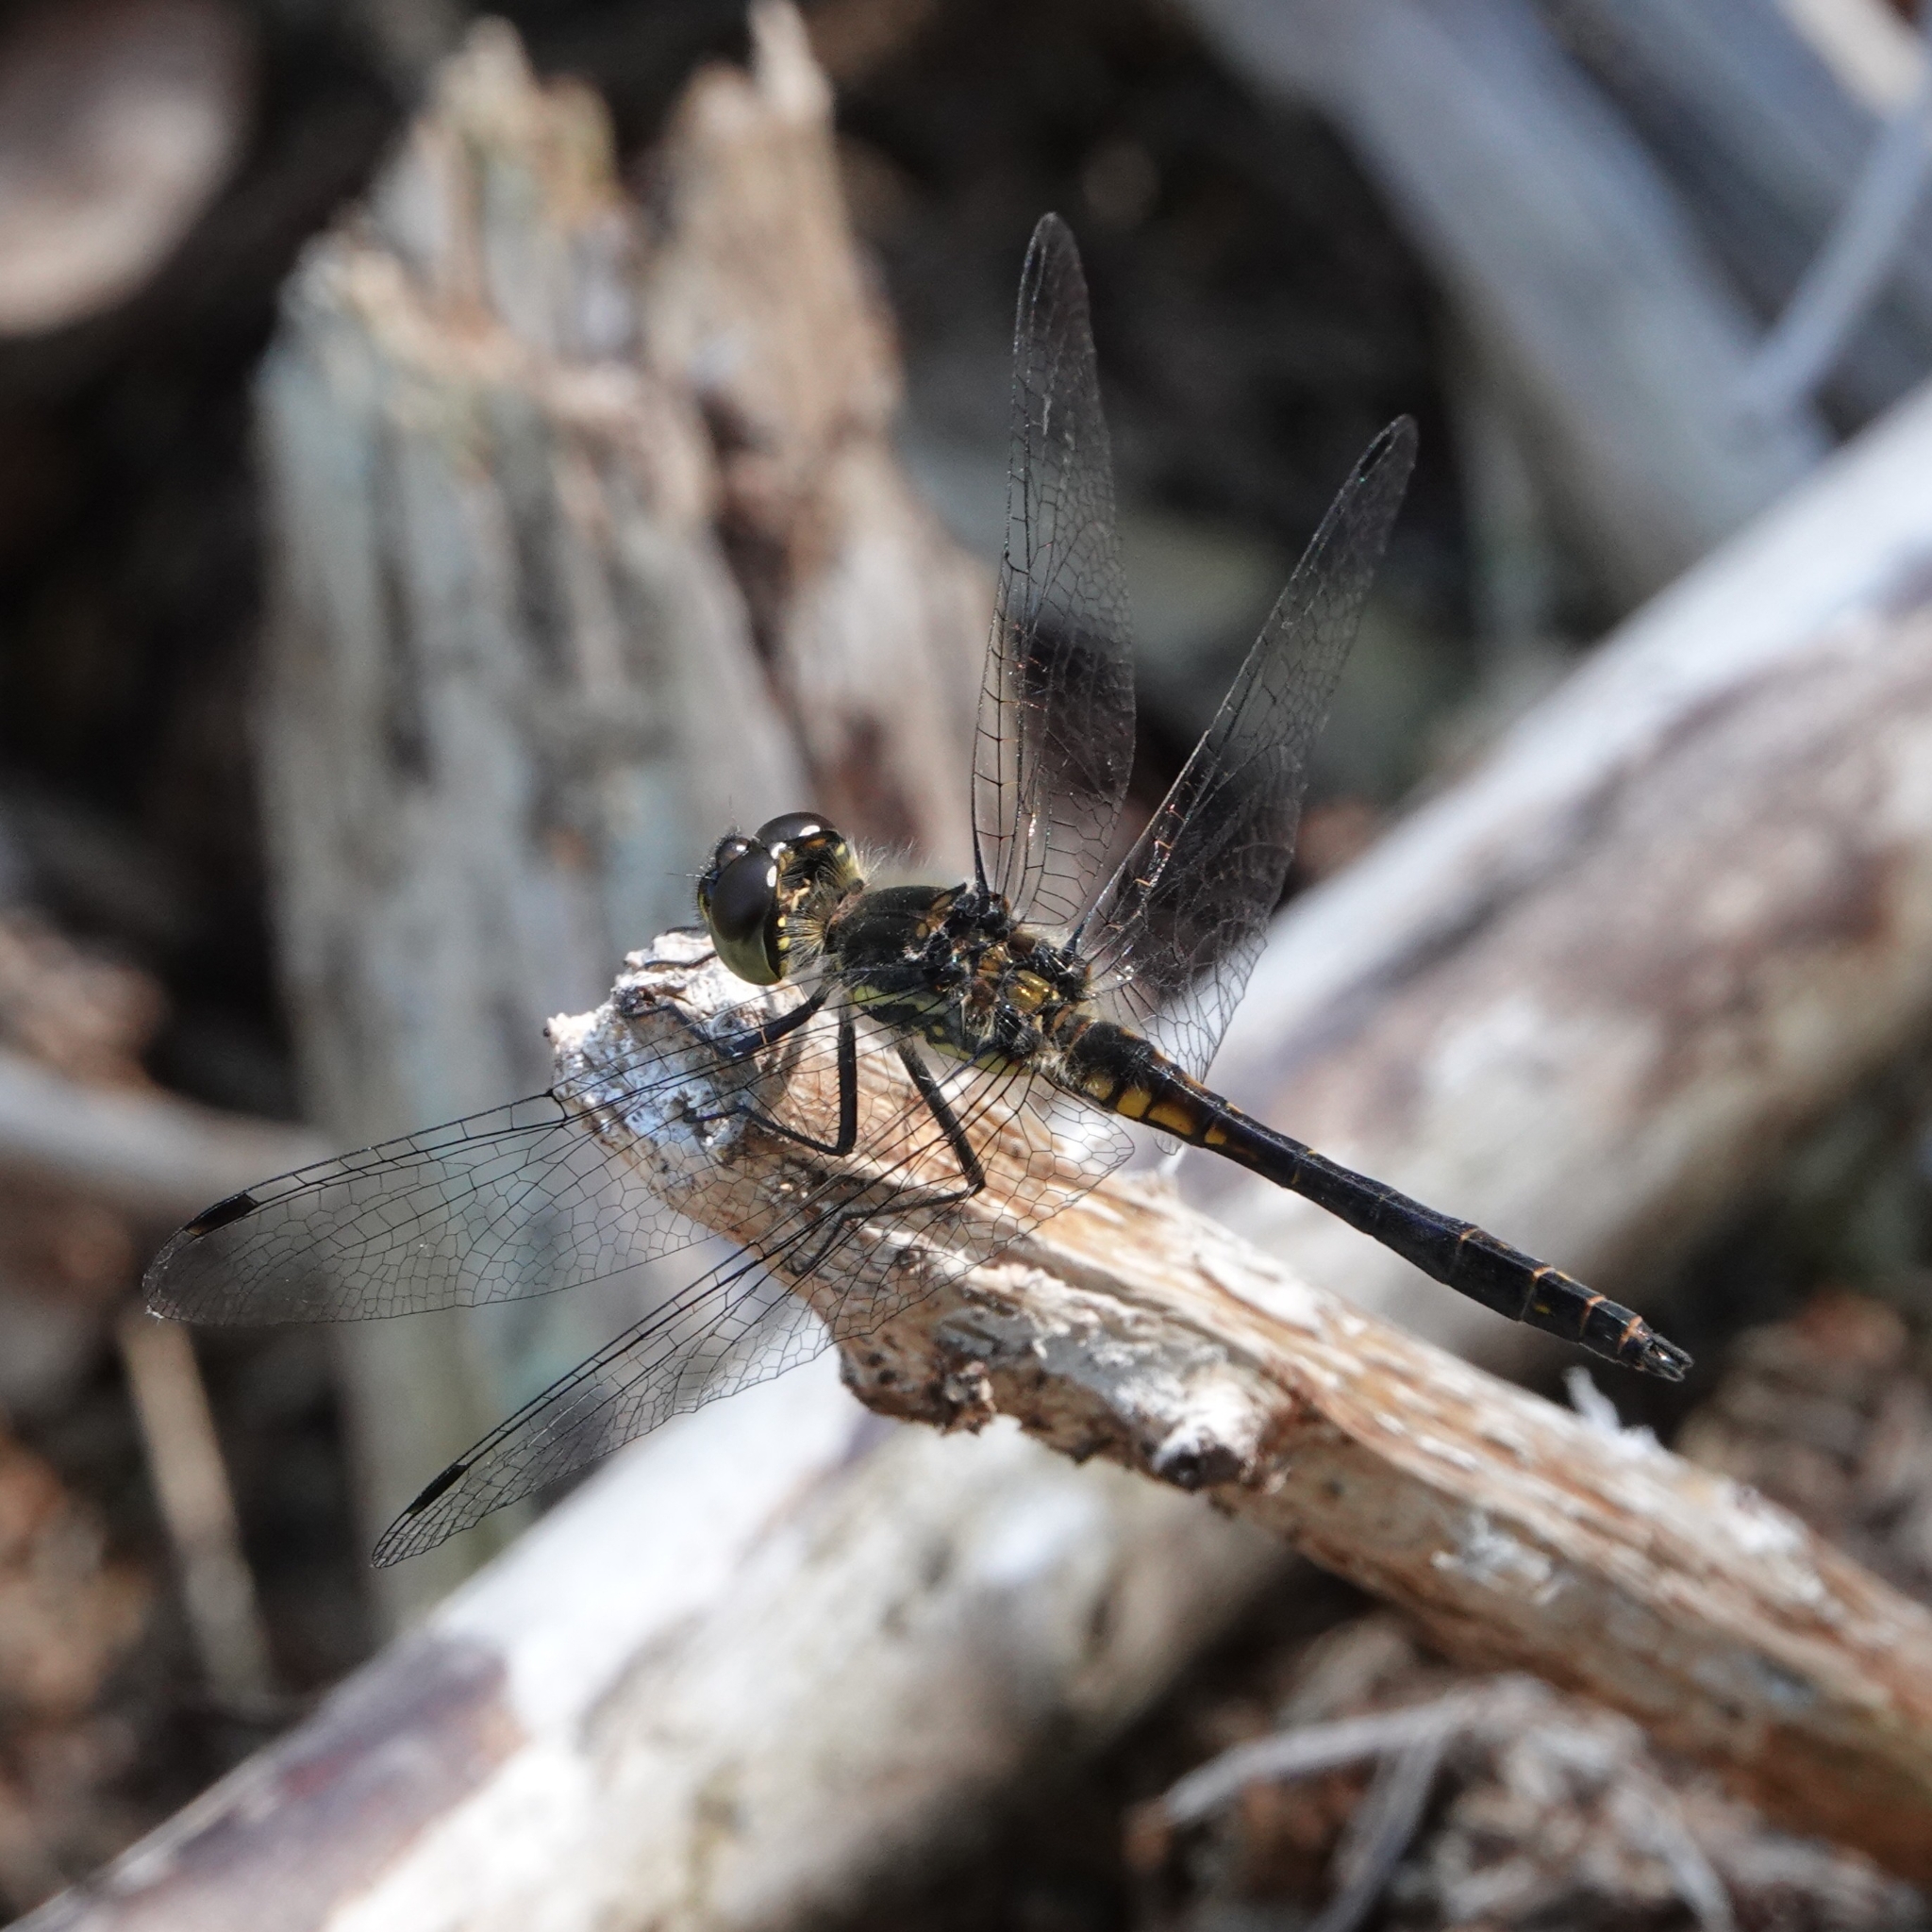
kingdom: Animalia
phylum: Arthropoda
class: Insecta
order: Odonata
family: Libellulidae
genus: Sympetrum
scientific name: Sympetrum danae
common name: Black darter
